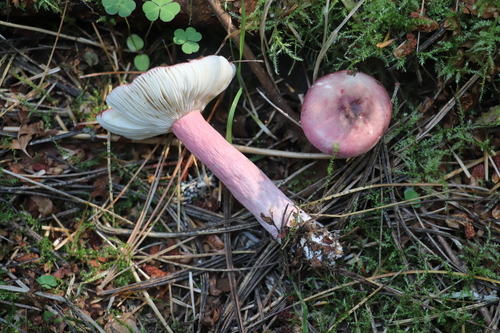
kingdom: Fungi
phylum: Basidiomycota
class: Agaricomycetes
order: Russulales
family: Russulaceae
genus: Russula
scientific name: Russula queletii
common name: Fruity brittlegill
